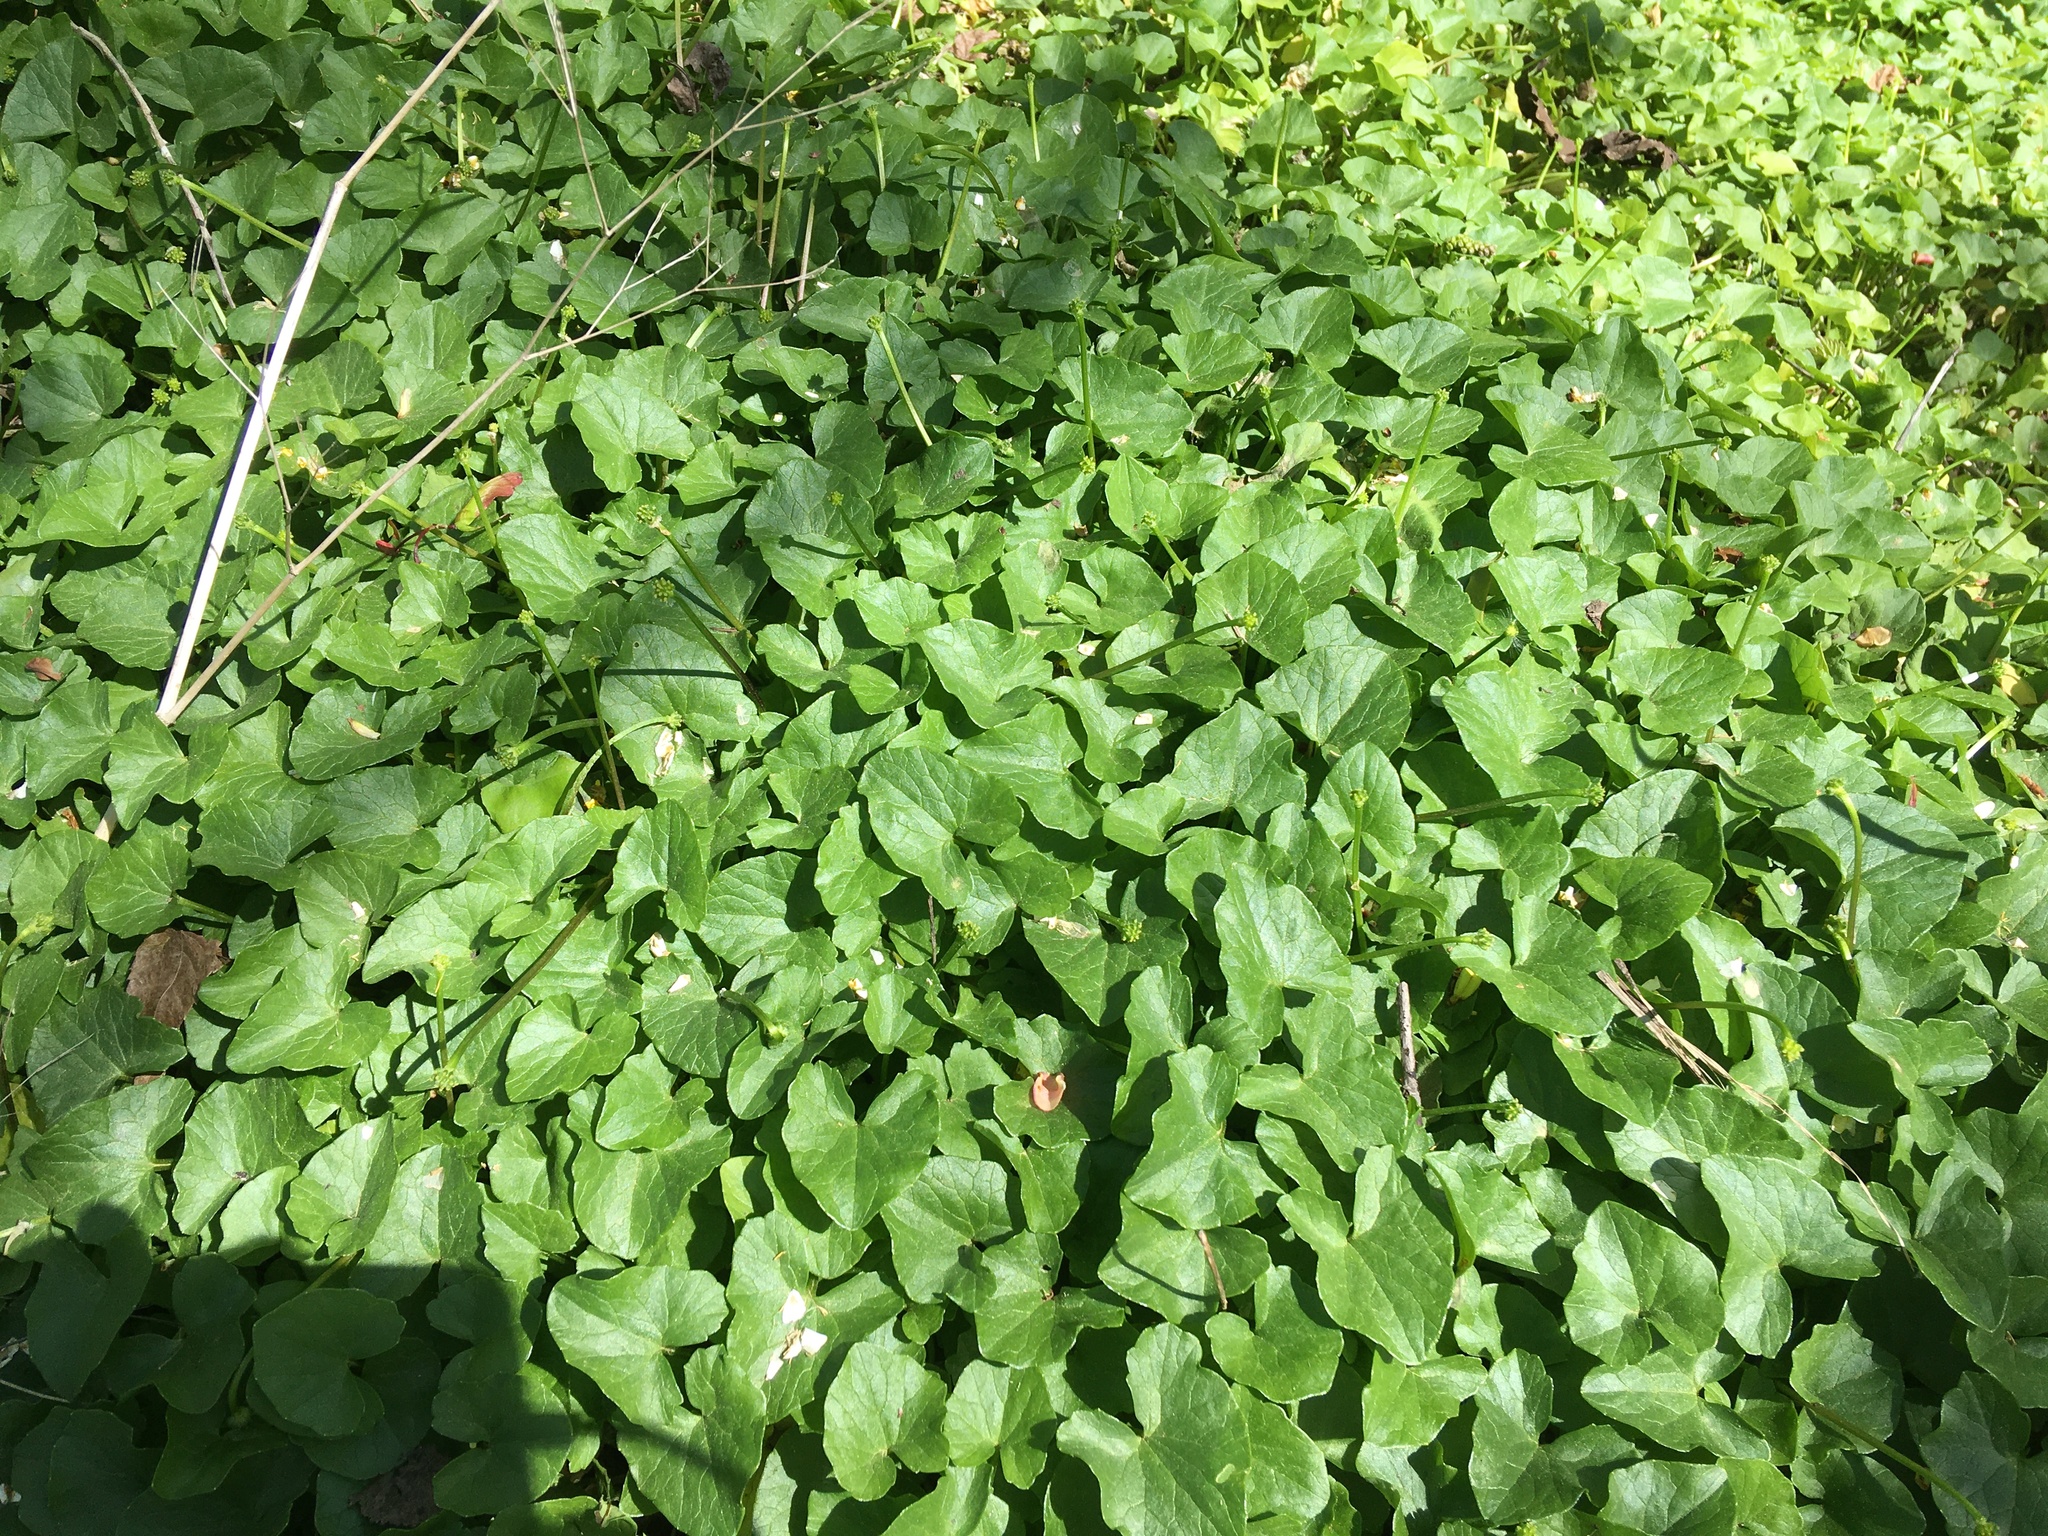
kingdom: Plantae
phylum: Tracheophyta
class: Magnoliopsida
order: Ranunculales
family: Ranunculaceae
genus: Ficaria
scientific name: Ficaria verna
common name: Lesser celandine
